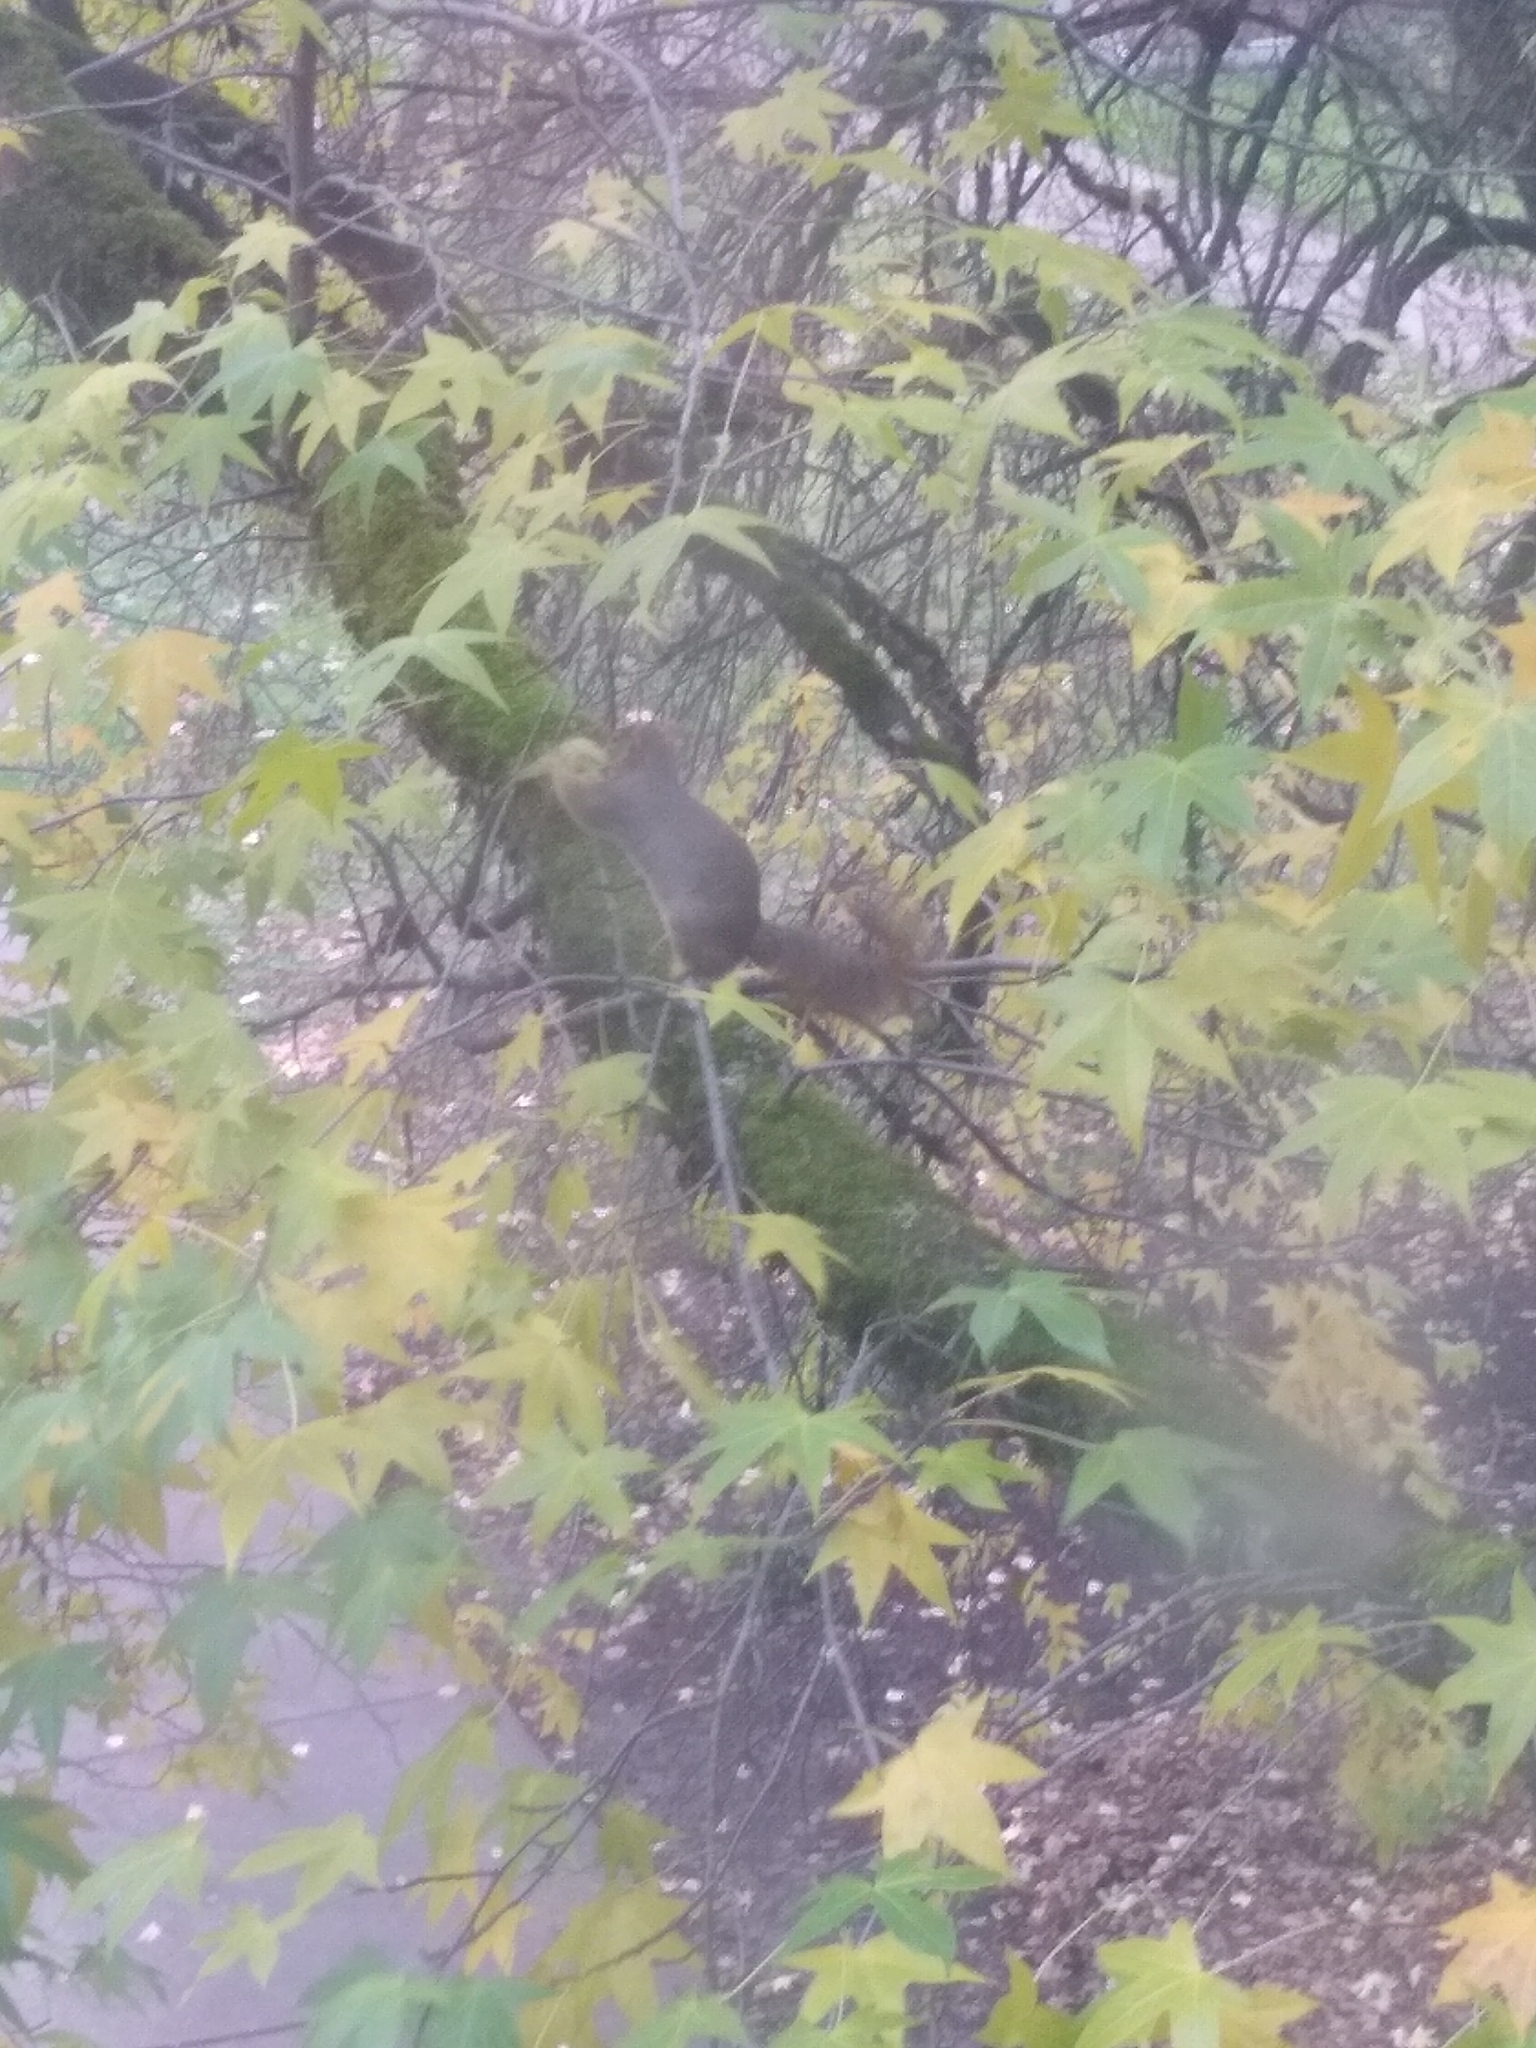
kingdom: Animalia
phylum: Chordata
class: Mammalia
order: Rodentia
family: Sciuridae
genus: Sciurus
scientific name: Sciurus niger
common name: Fox squirrel
